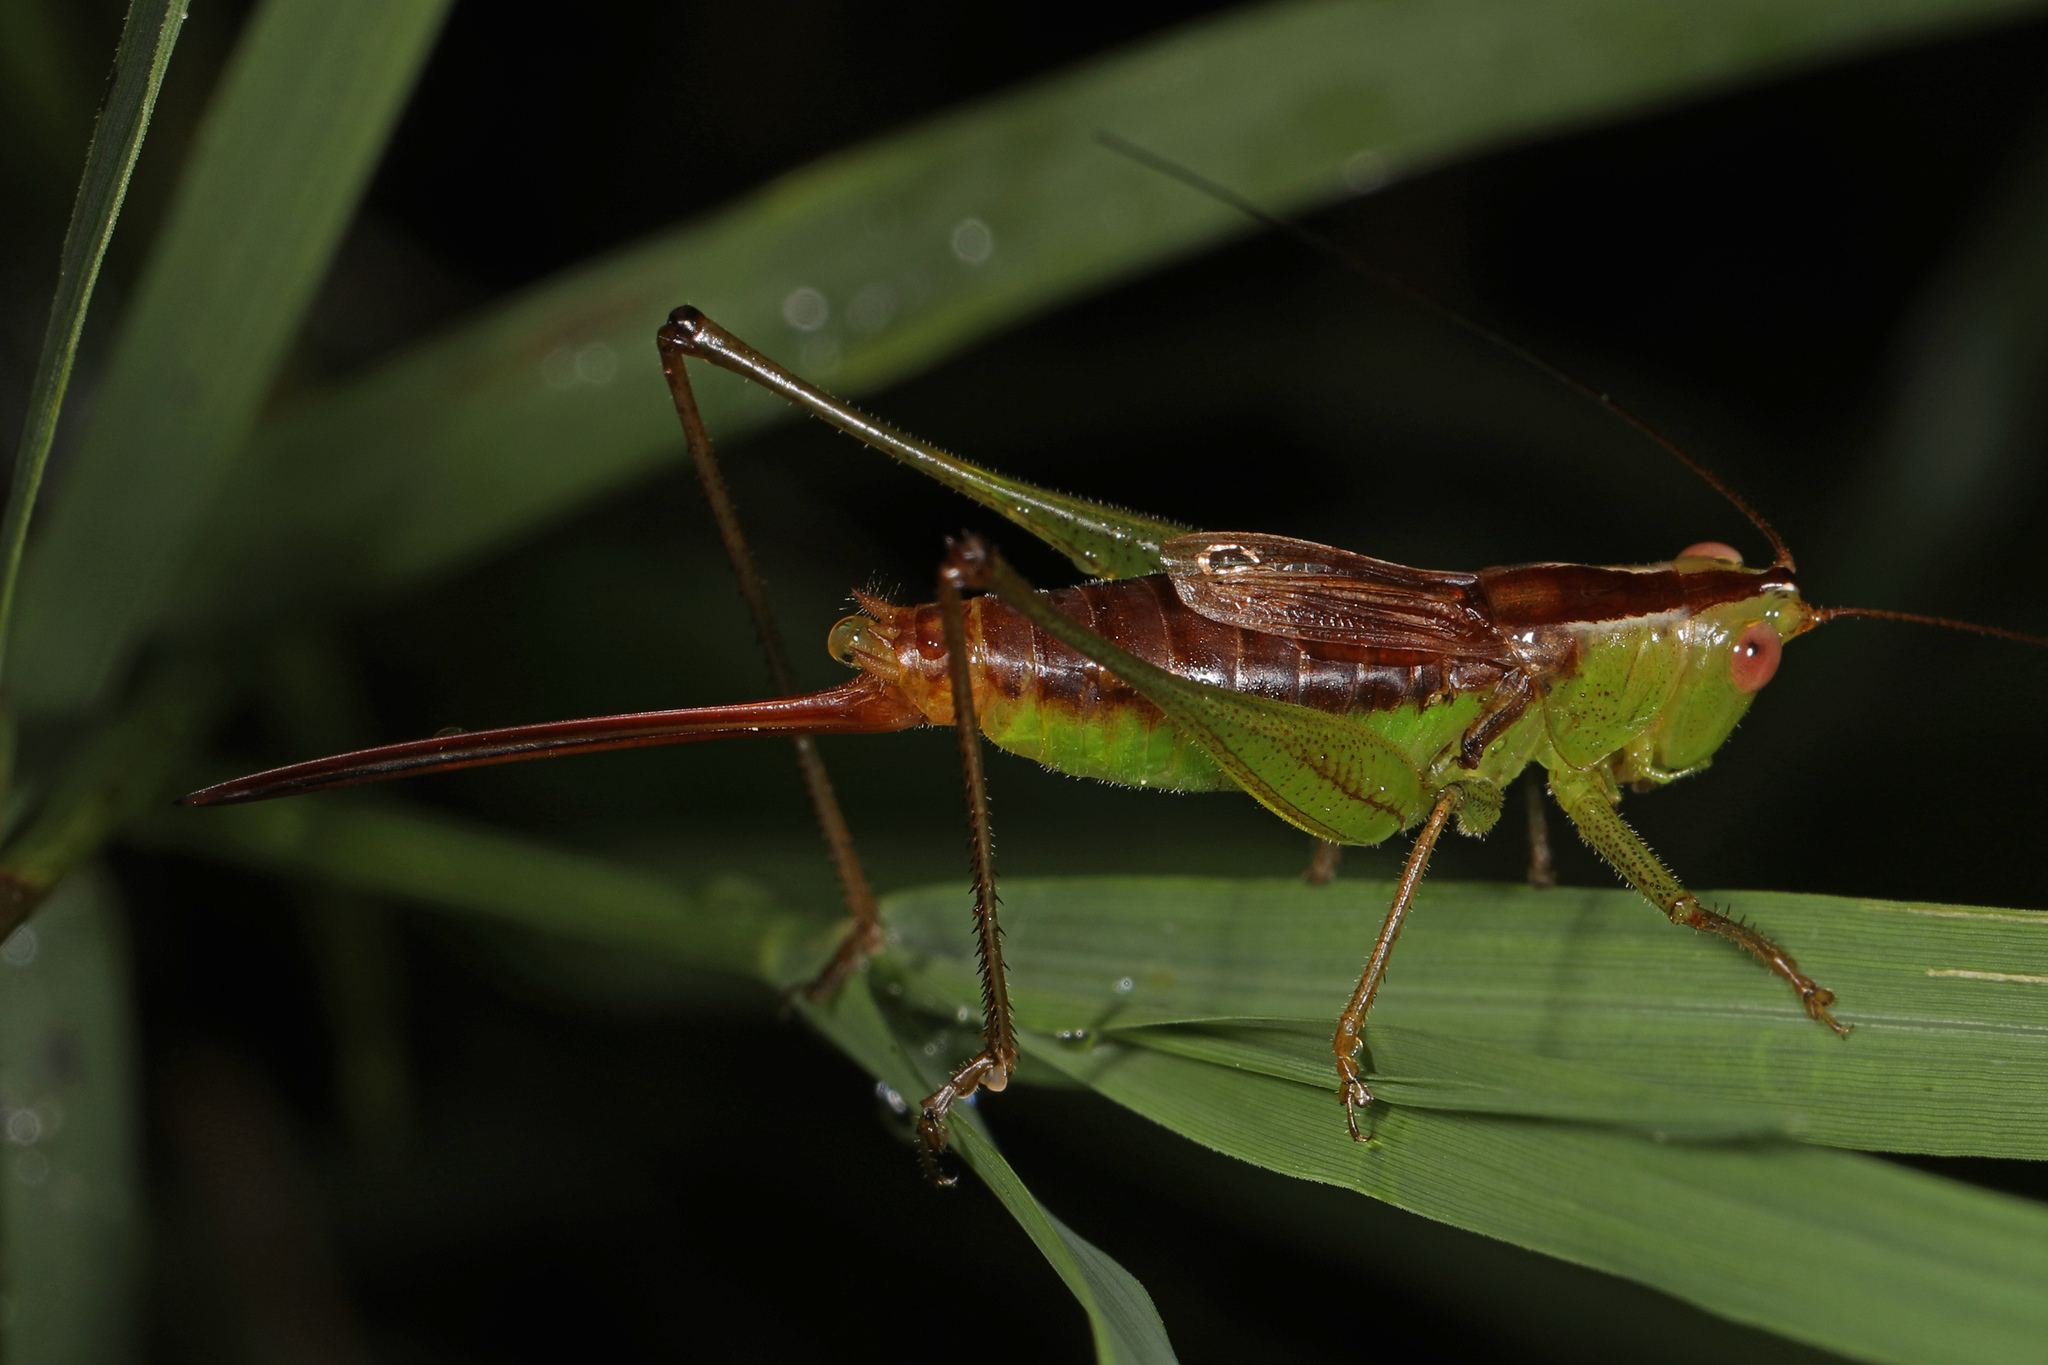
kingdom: Animalia
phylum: Arthropoda
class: Insecta
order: Orthoptera
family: Tettigoniidae
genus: Conocephalus
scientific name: Conocephalus brevipennis
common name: Short-winged meadow katydid
